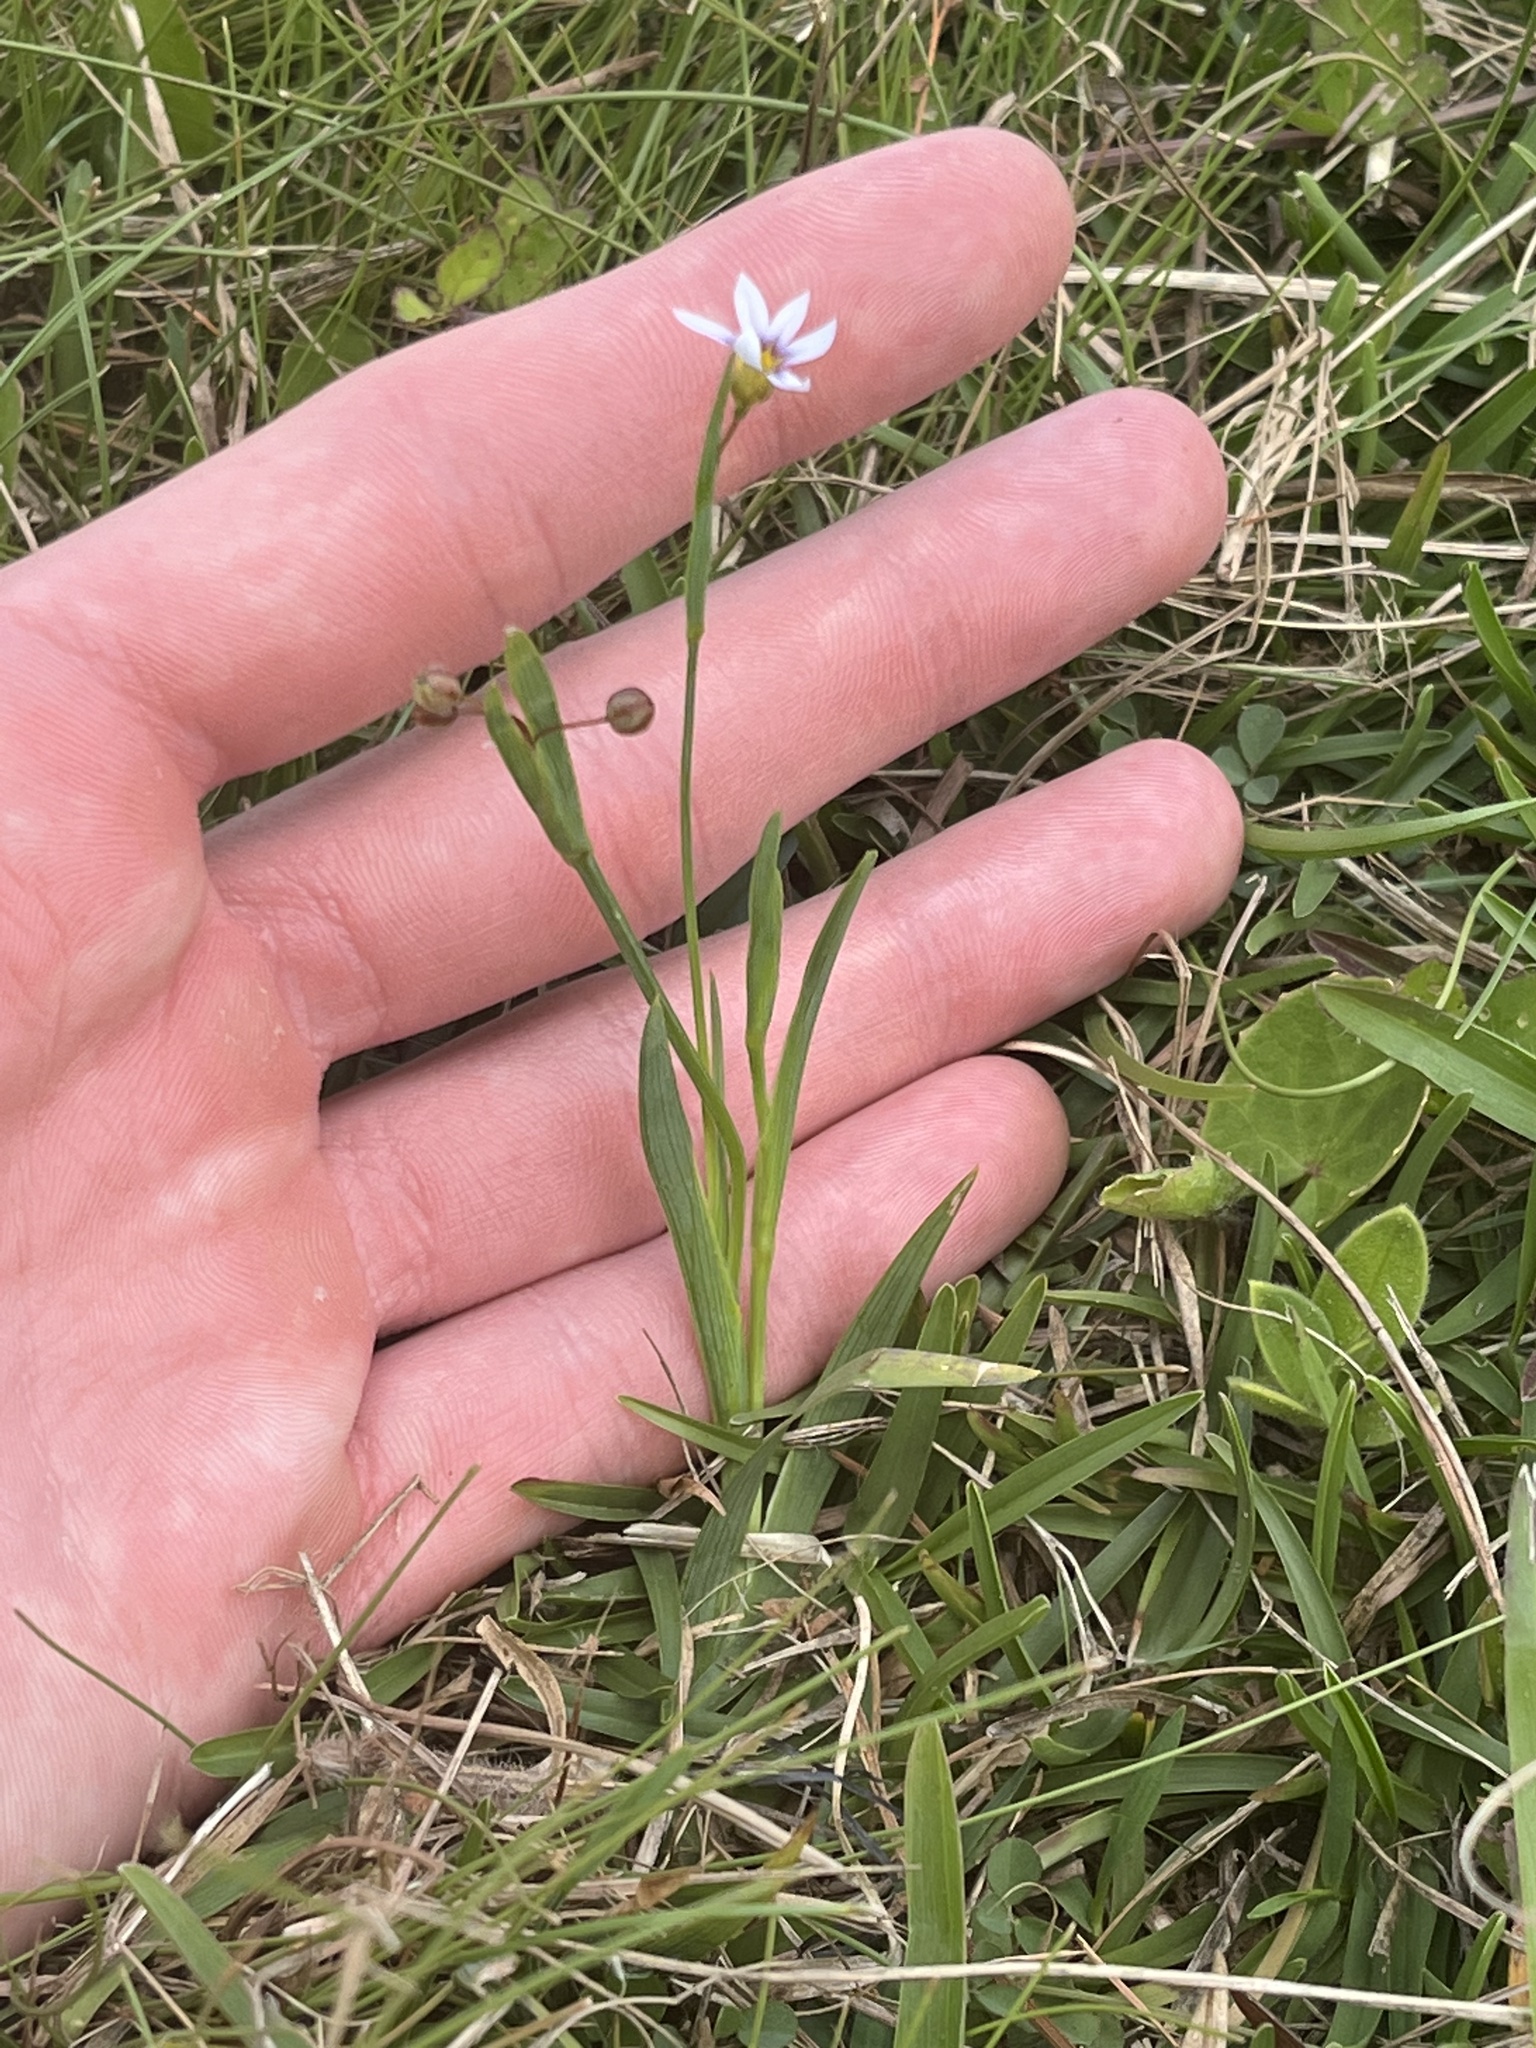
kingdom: Plantae
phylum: Tracheophyta
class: Liliopsida
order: Asparagales
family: Iridaceae
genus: Sisyrinchium
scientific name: Sisyrinchium micranthum
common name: Bermuda pigroot
